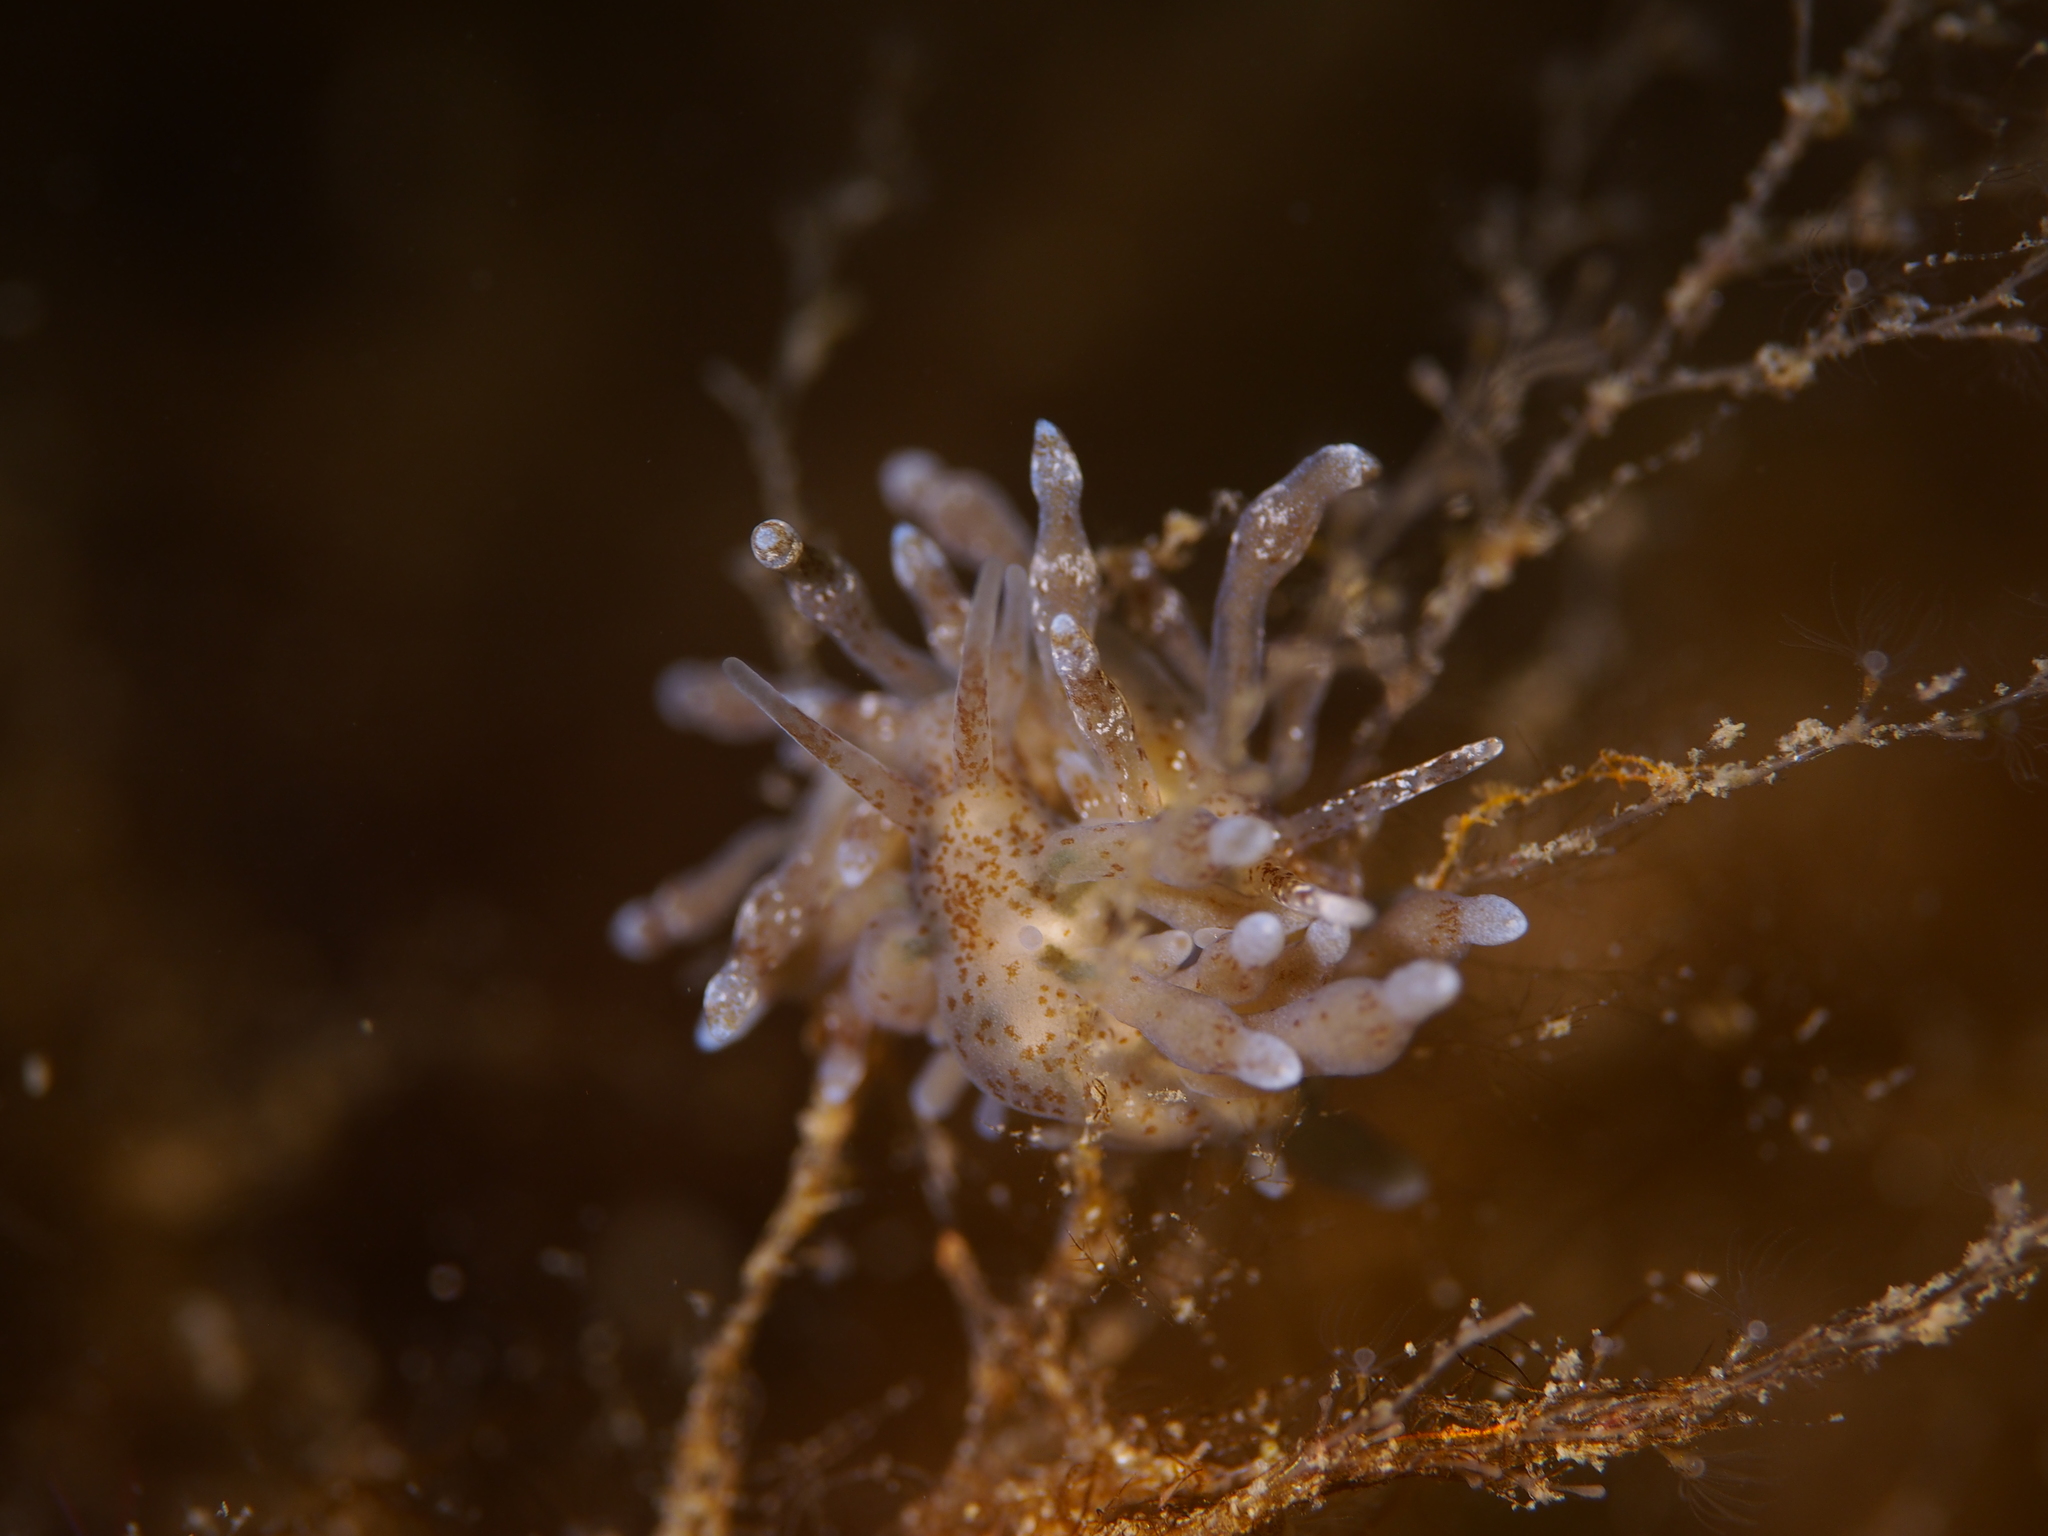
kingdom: Animalia
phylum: Mollusca
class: Gastropoda
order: Nudibranchia
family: Eubranchidae
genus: Eubranchus
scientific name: Eubranchus rupium
